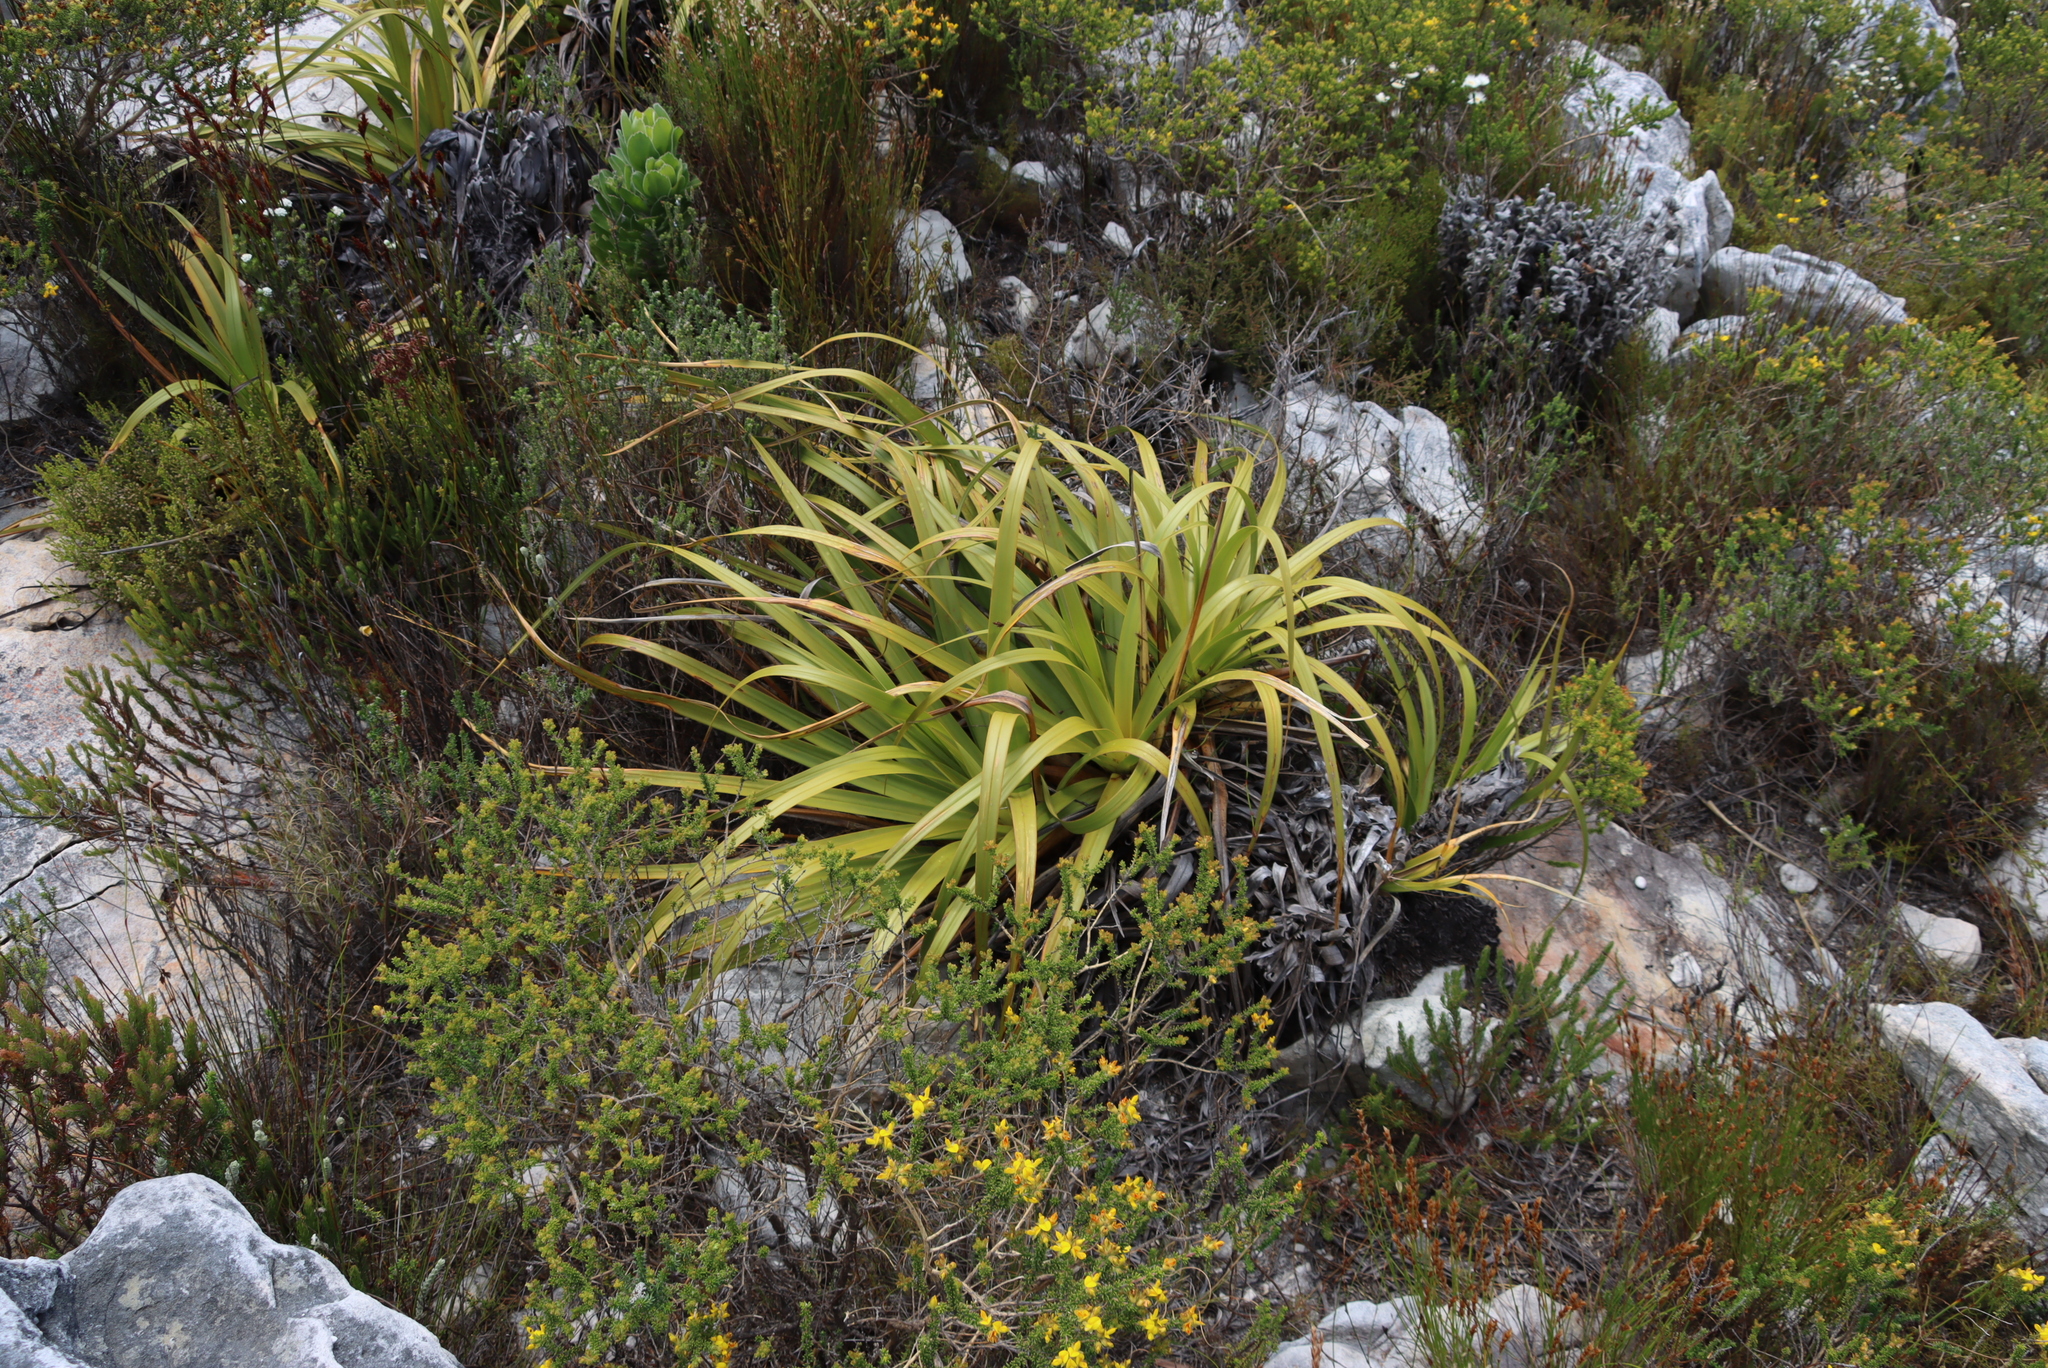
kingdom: Plantae
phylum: Tracheophyta
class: Liliopsida
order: Poales
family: Cyperaceae
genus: Tetraria
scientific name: Tetraria thermalis
